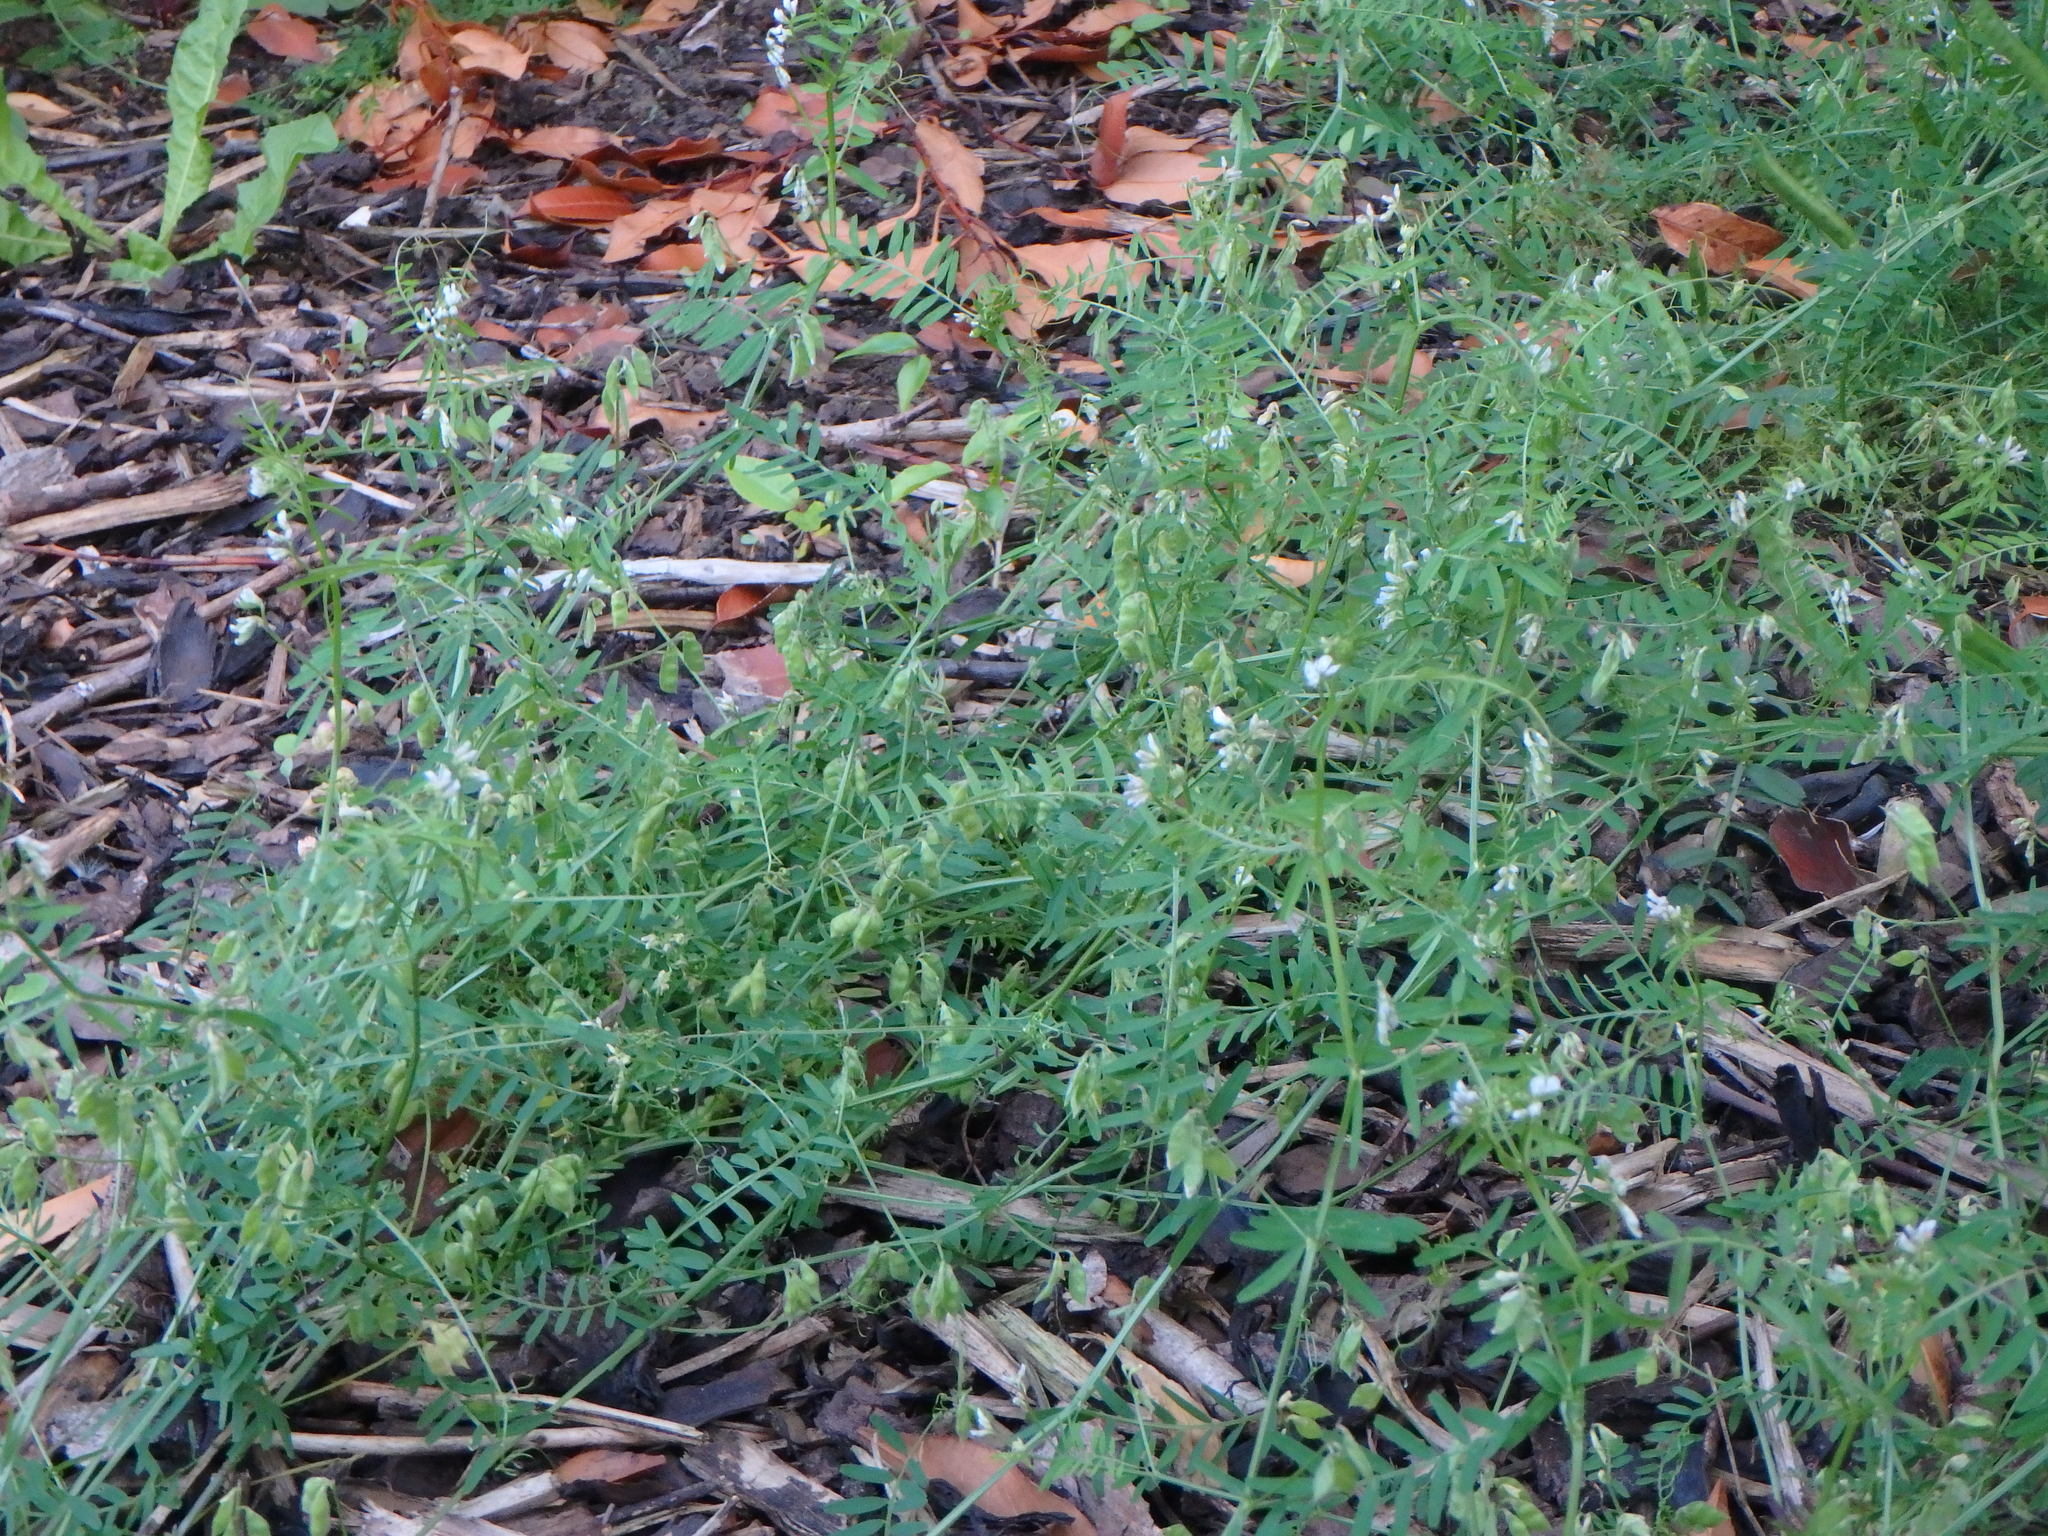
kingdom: Plantae
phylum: Tracheophyta
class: Magnoliopsida
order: Fabales
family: Fabaceae
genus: Vicia
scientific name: Vicia hirsuta
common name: Tiny vetch
